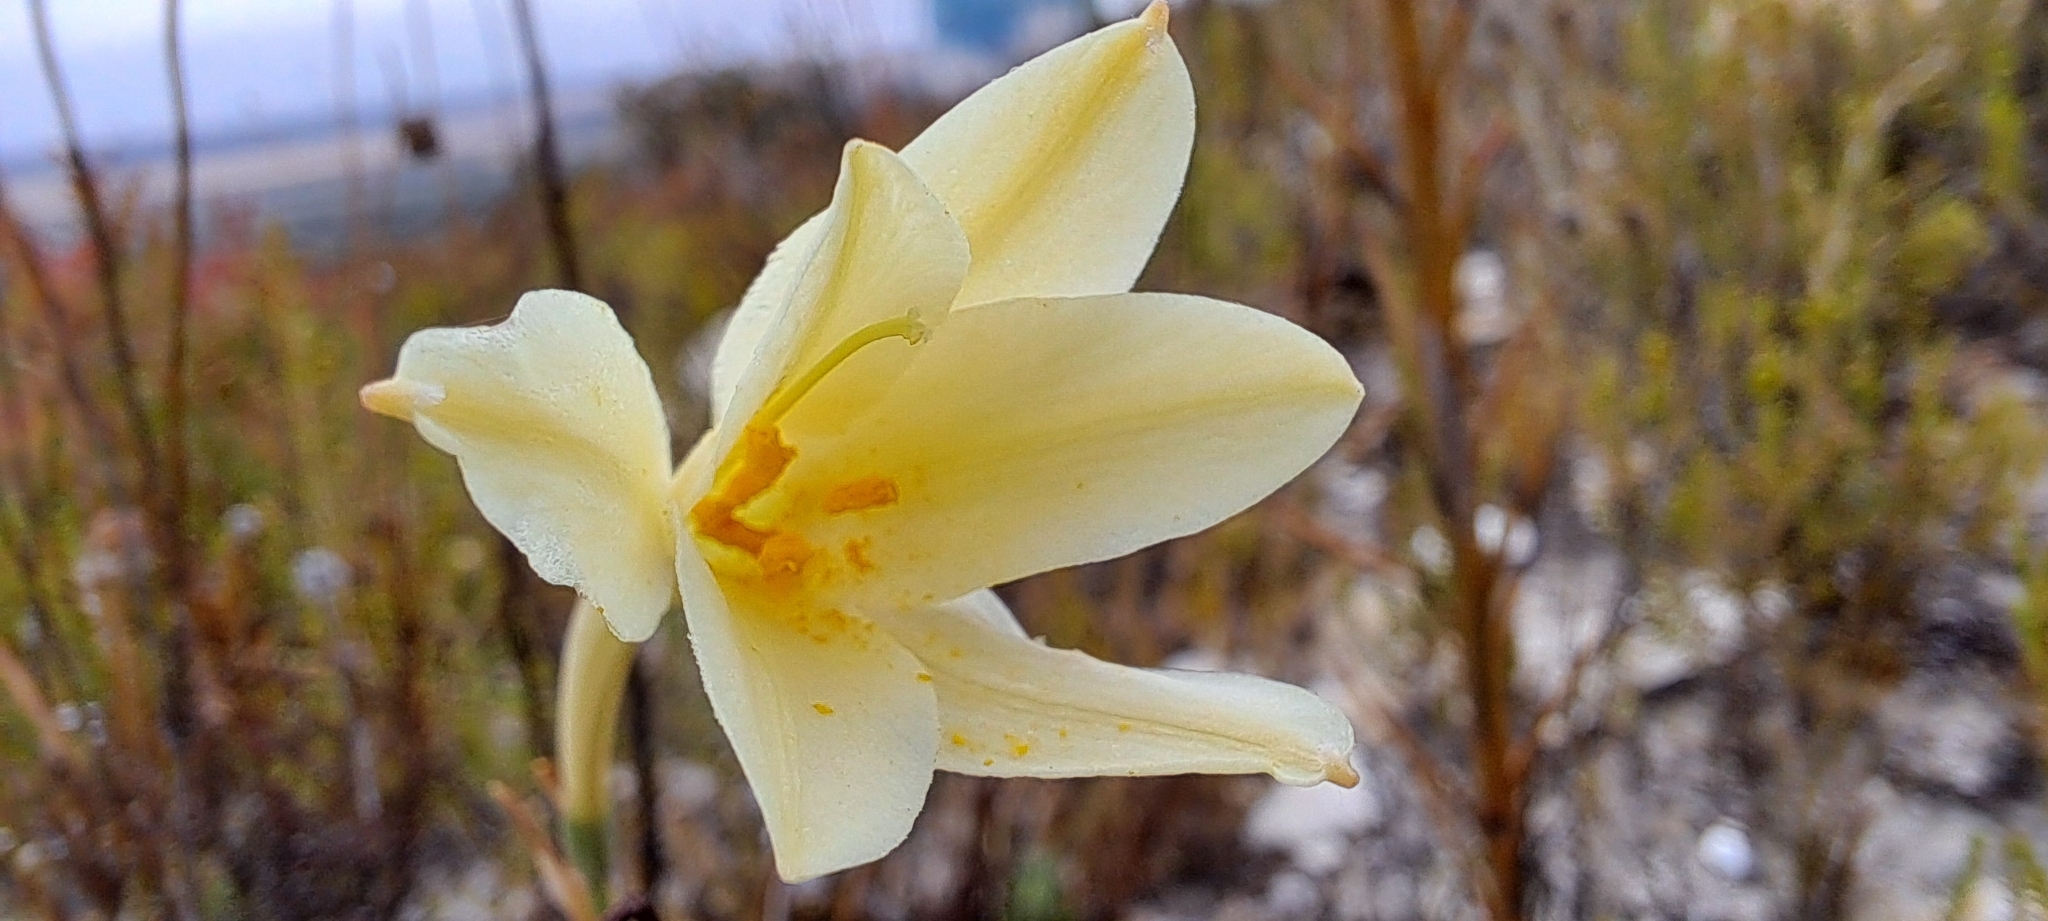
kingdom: Plantae
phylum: Tracheophyta
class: Liliopsida
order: Asparagales
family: Amaryllidaceae
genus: Cyrtanthus
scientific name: Cyrtanthus leucanthus
